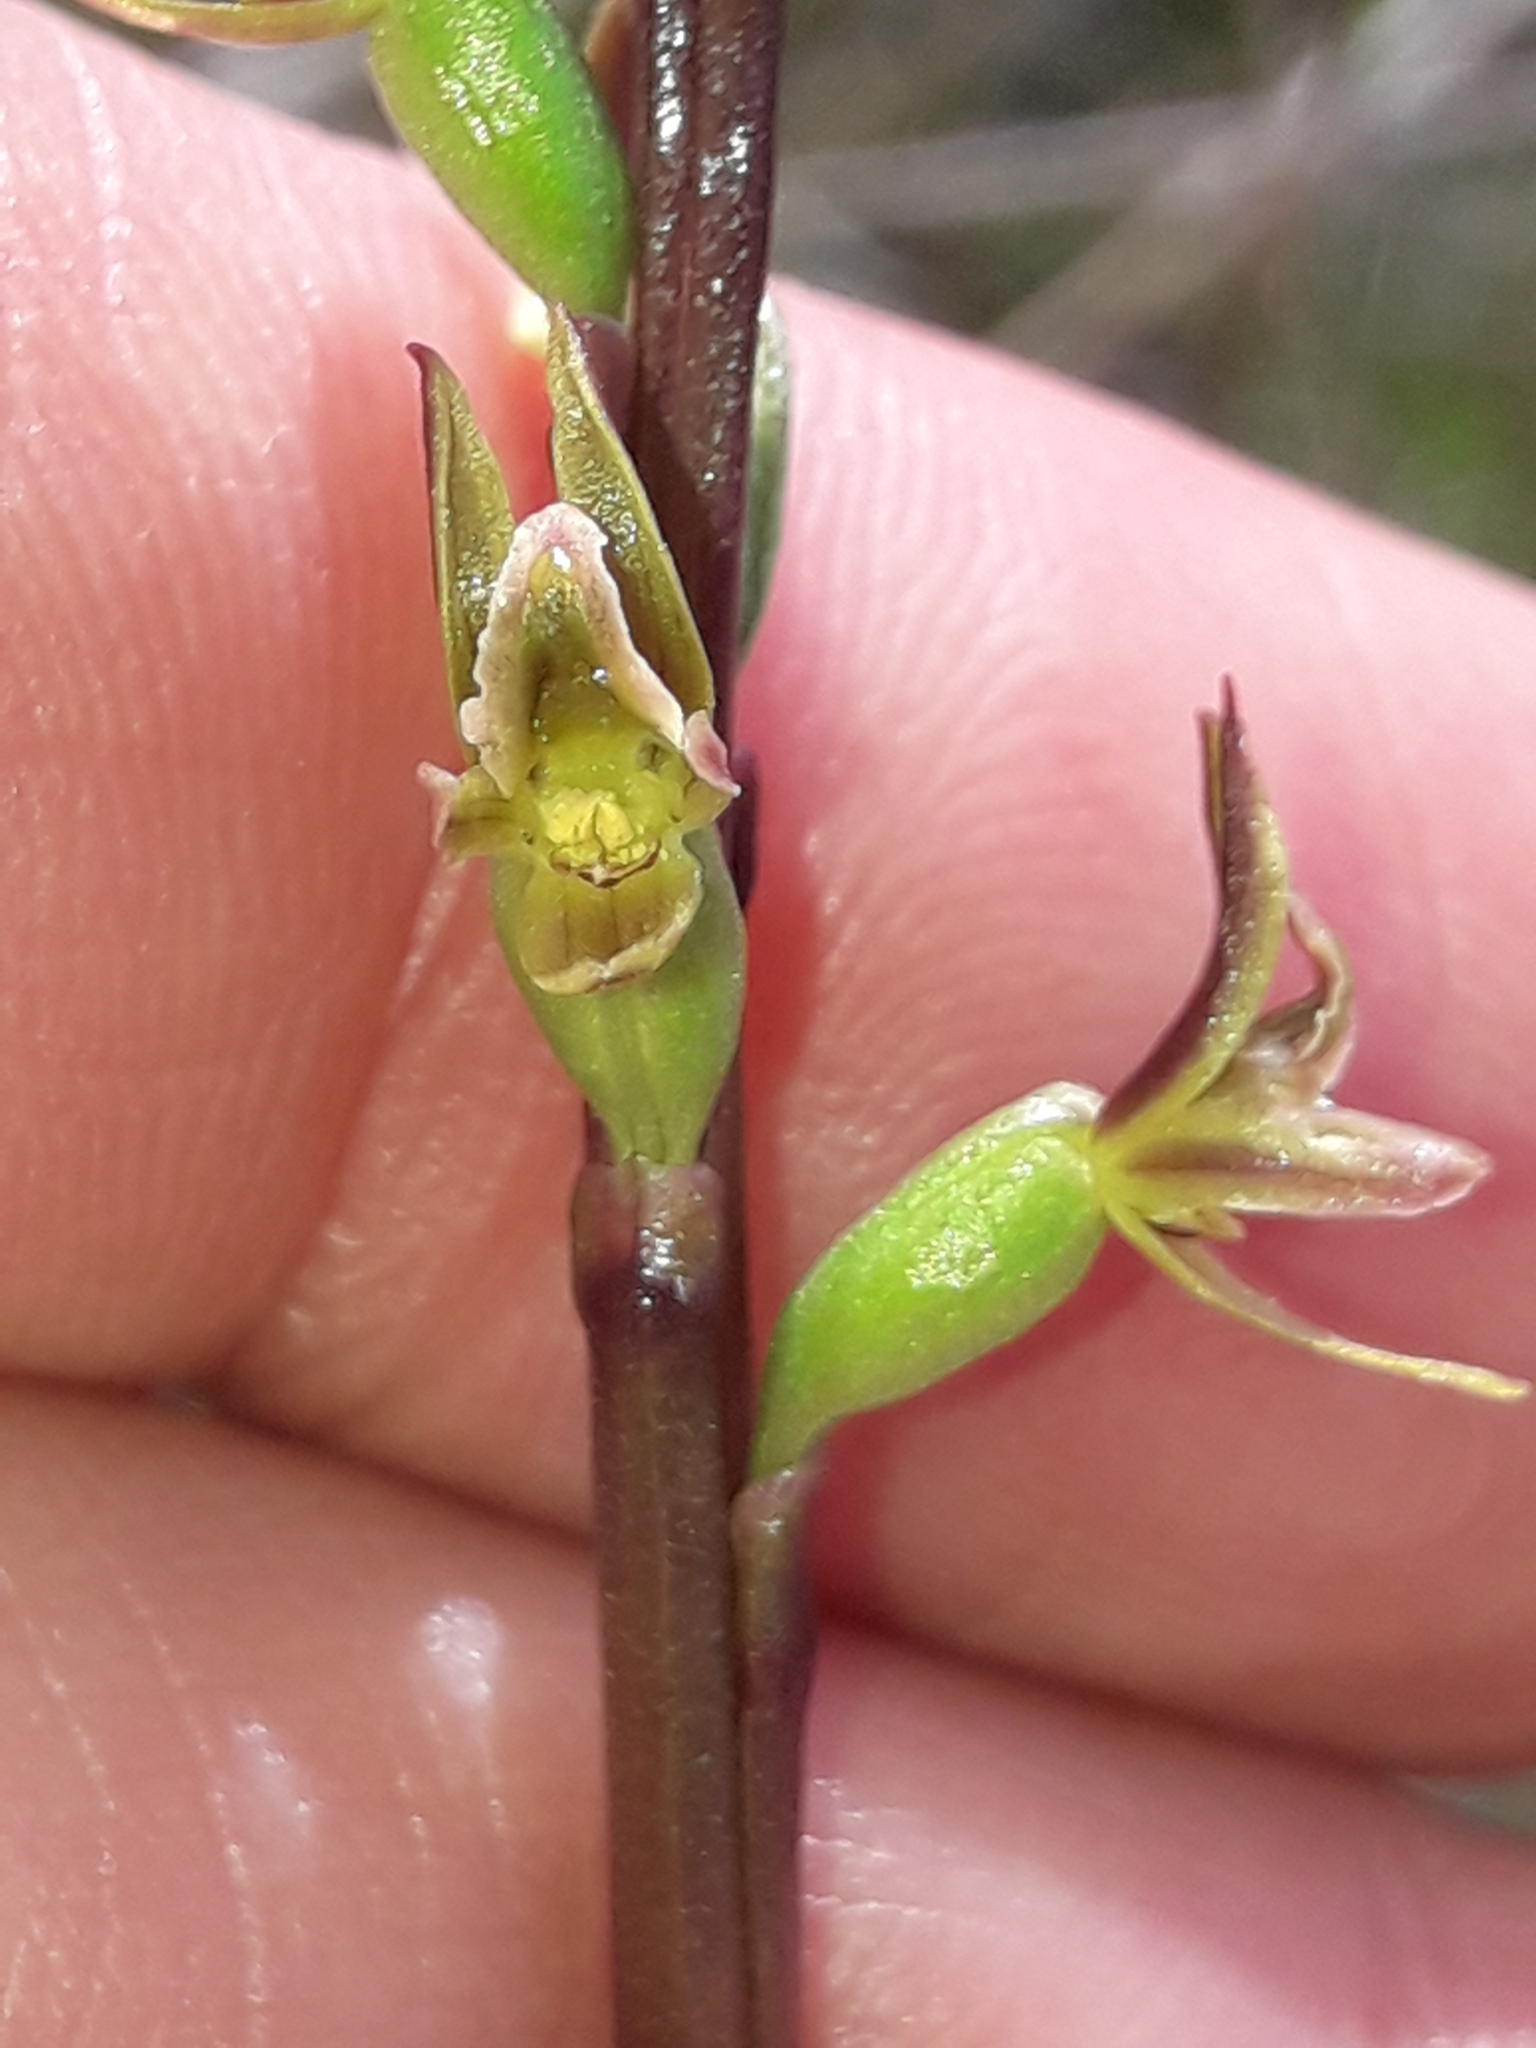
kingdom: Plantae
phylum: Tracheophyta
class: Liliopsida
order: Asparagales
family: Orchidaceae
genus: Prasophyllum
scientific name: Prasophyllum colensoi
